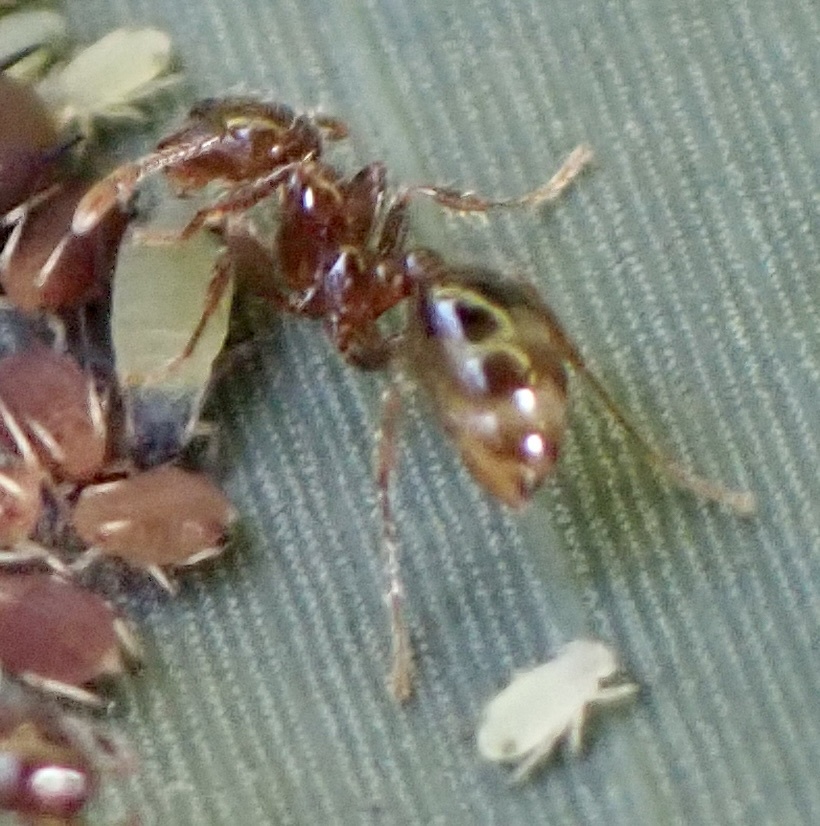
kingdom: Animalia
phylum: Arthropoda
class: Insecta
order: Hymenoptera
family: Formicidae
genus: Solenopsis
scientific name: Solenopsis invicta
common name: Red imported fire ant
